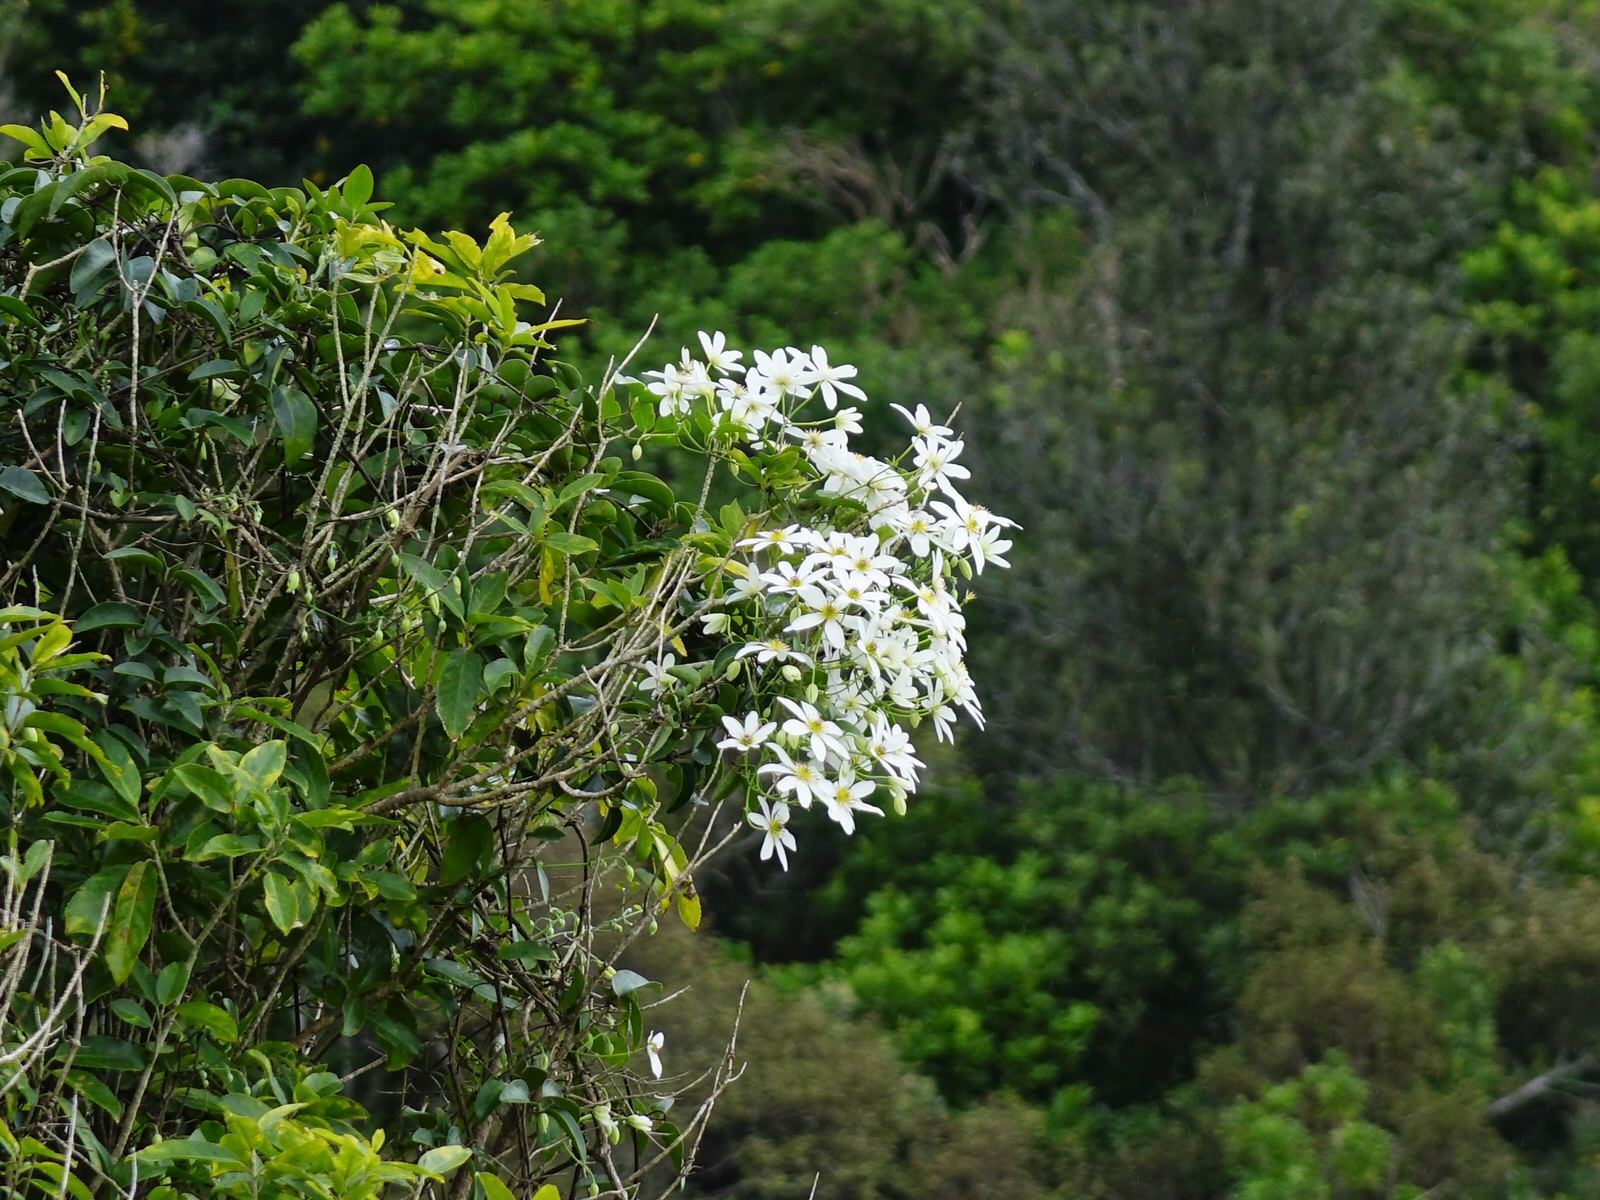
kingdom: Plantae
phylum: Tracheophyta
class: Magnoliopsida
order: Ranunculales
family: Ranunculaceae
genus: Clematis
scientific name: Clematis paniculata
